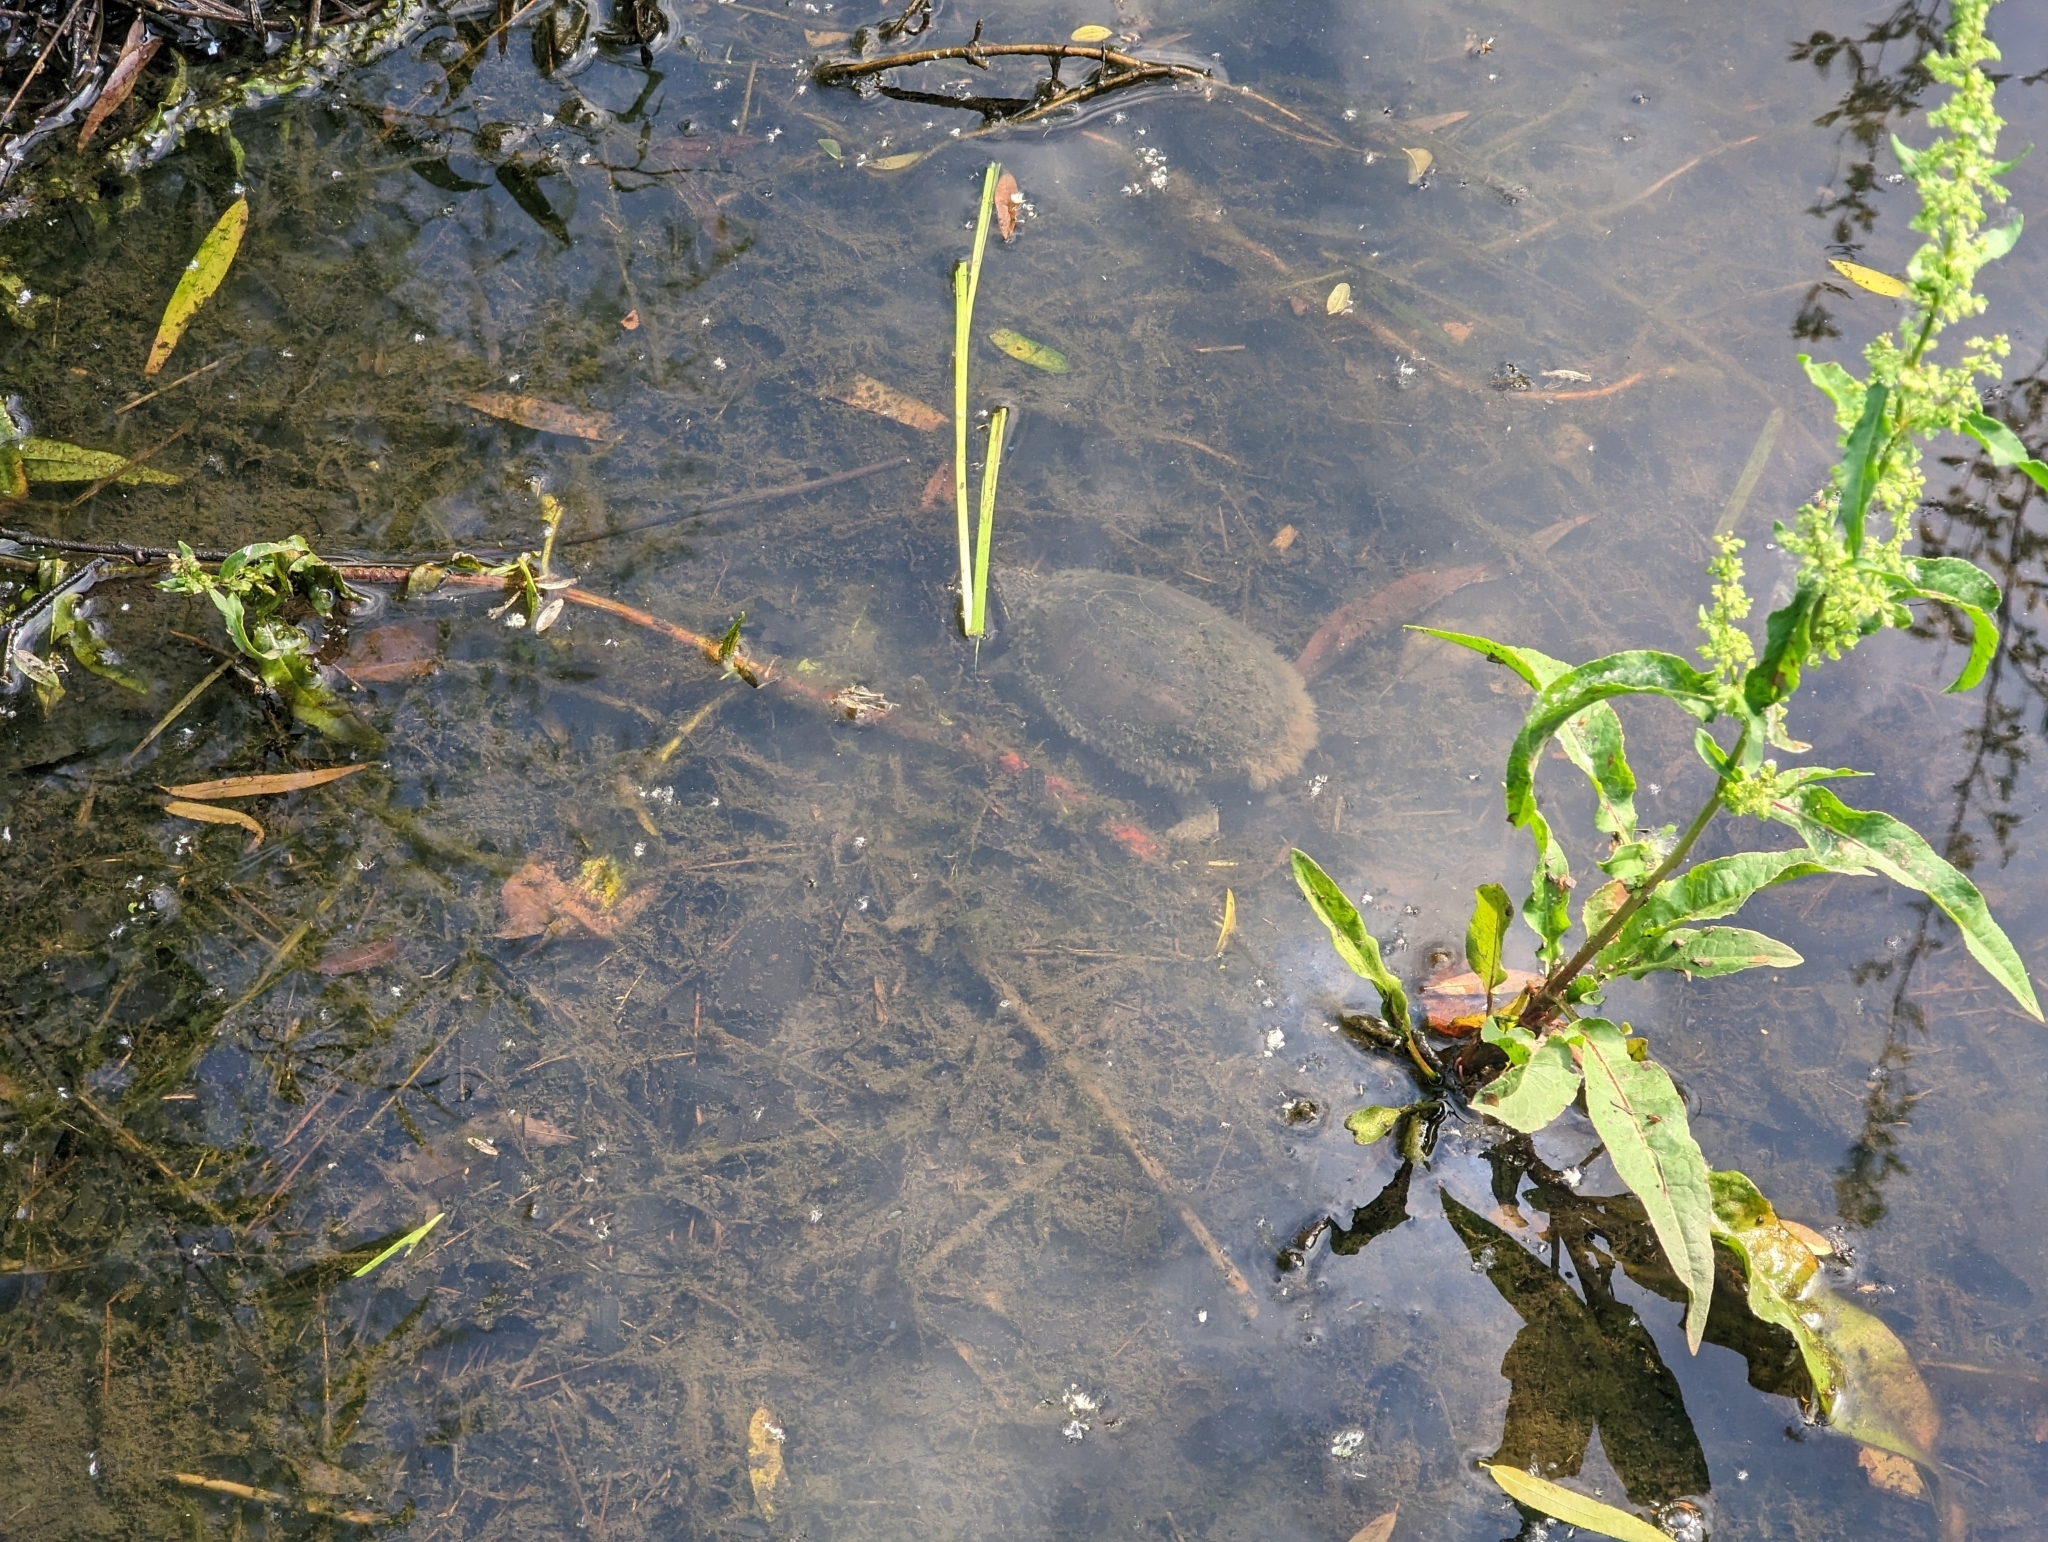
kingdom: Animalia
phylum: Chordata
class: Testudines
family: Kinosternidae
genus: Sternotherus
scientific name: Sternotherus odoratus
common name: Common musk turtle
